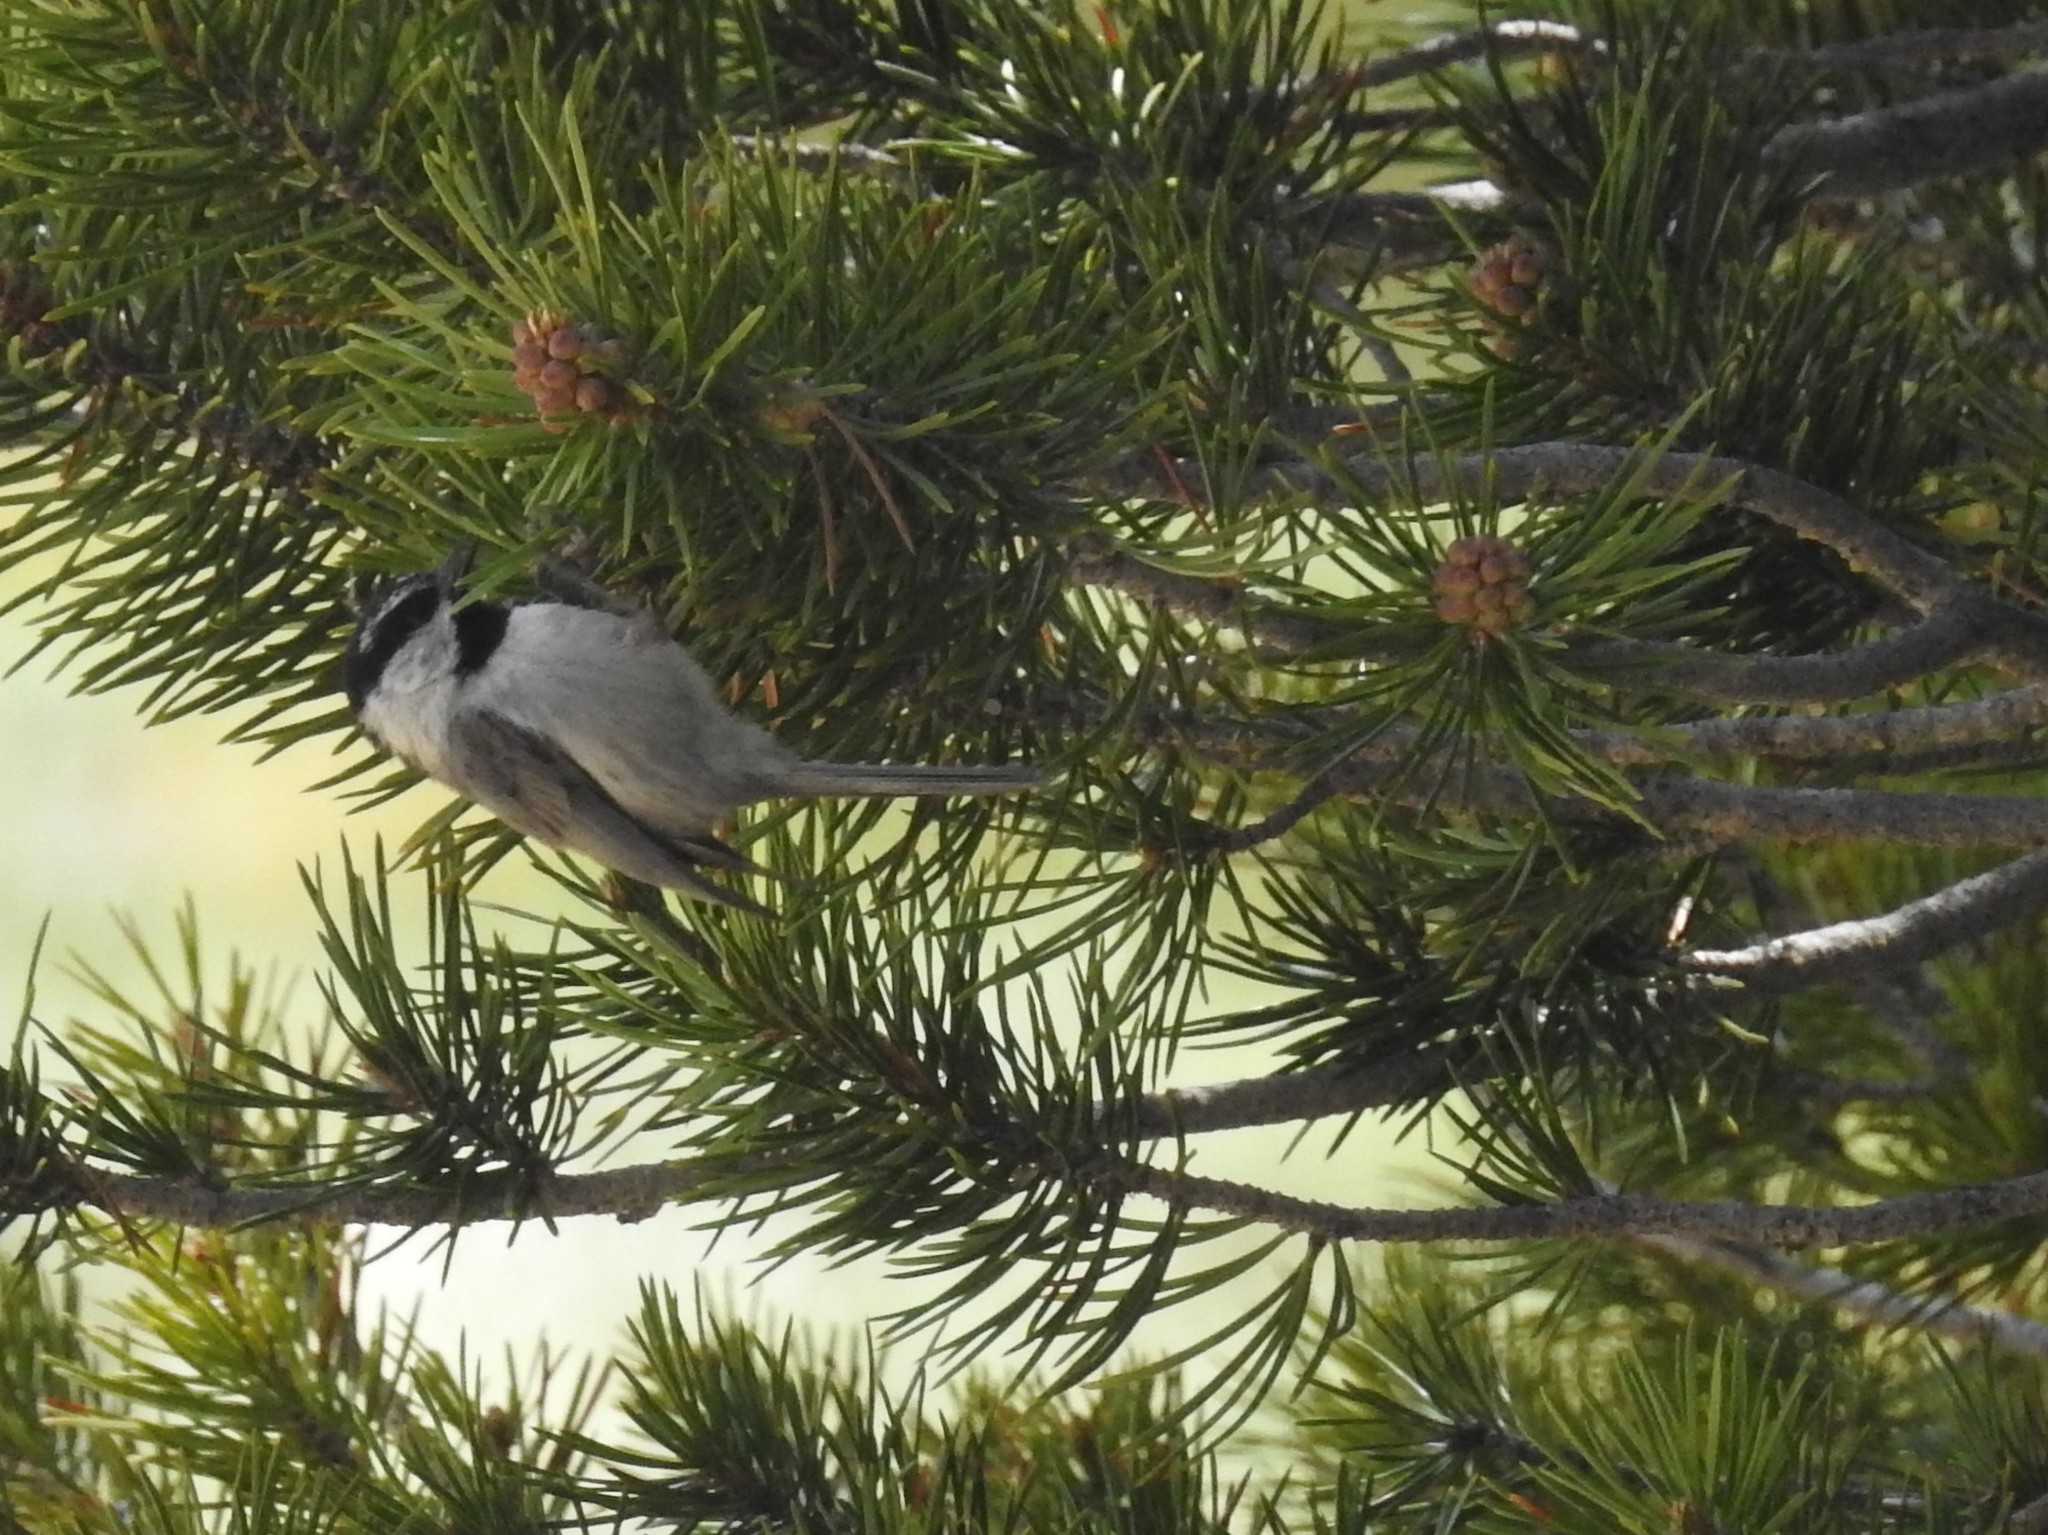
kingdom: Animalia
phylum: Chordata
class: Aves
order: Passeriformes
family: Paridae
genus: Poecile
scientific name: Poecile gambeli
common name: Mountain chickadee
